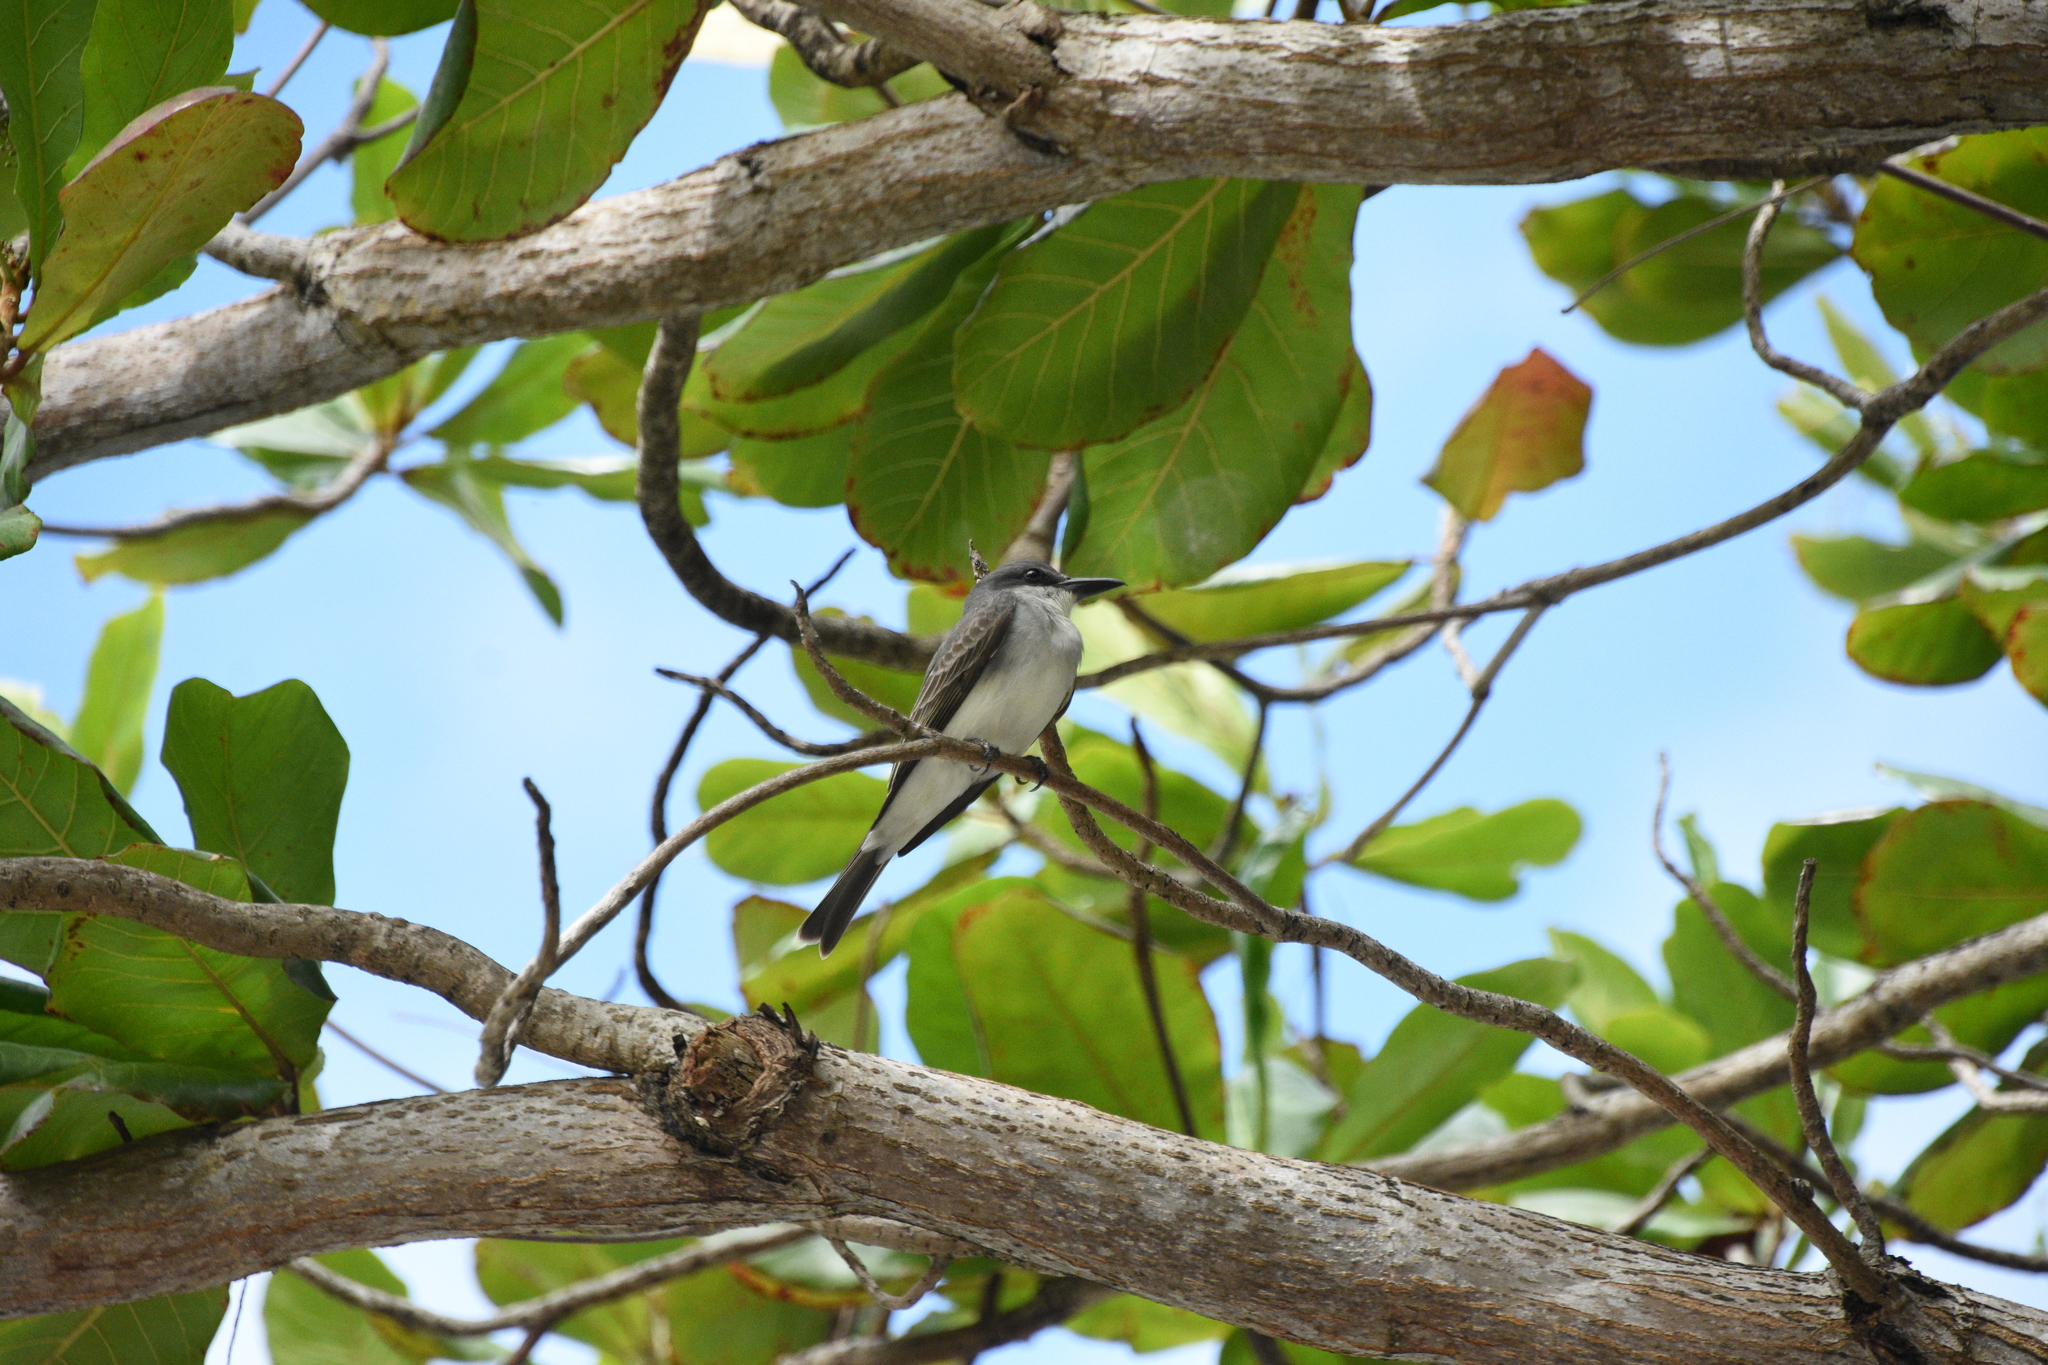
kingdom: Animalia
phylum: Chordata
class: Aves
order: Passeriformes
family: Tyrannidae
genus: Tyrannus
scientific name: Tyrannus dominicensis
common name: Gray kingbird
